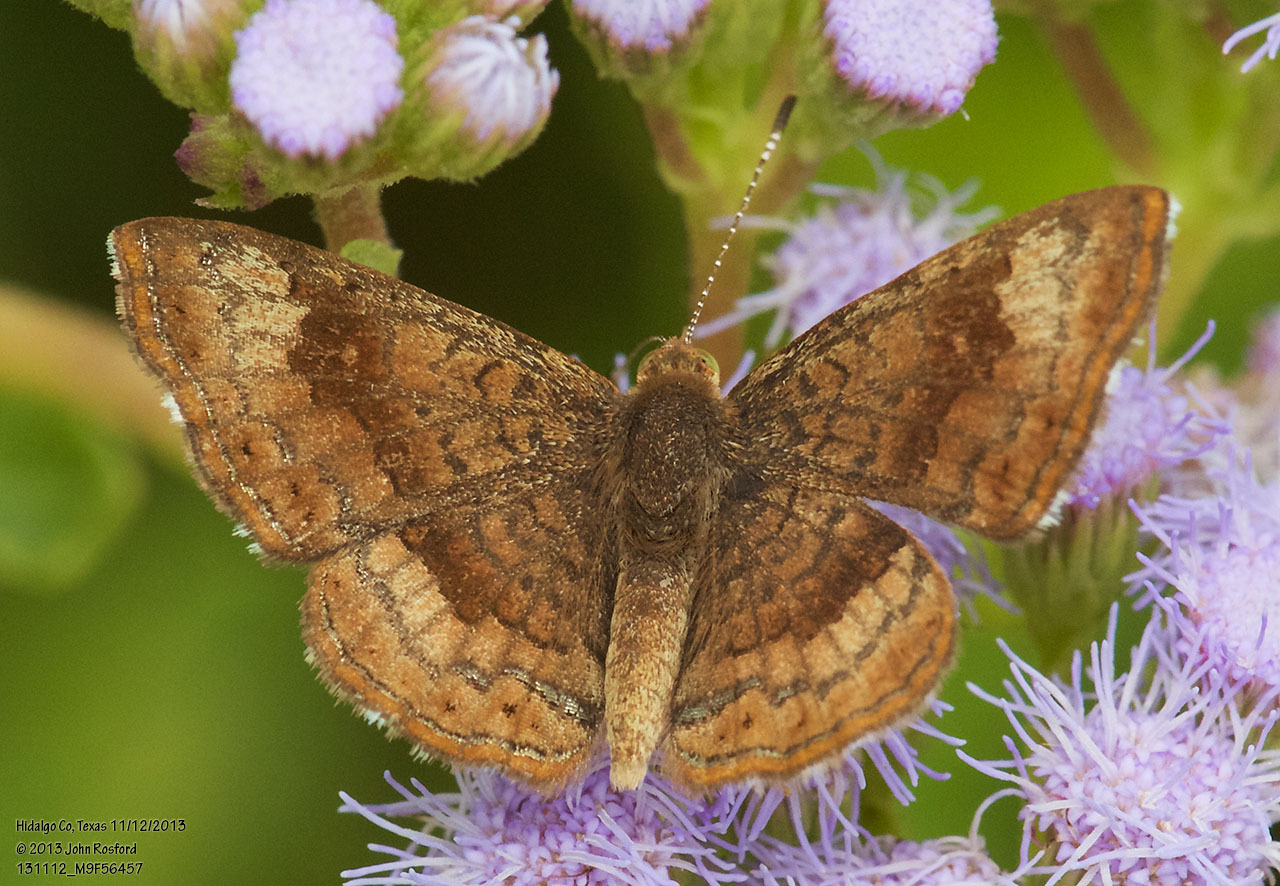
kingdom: Animalia
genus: Calephelis
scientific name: Calephelis nemesis
